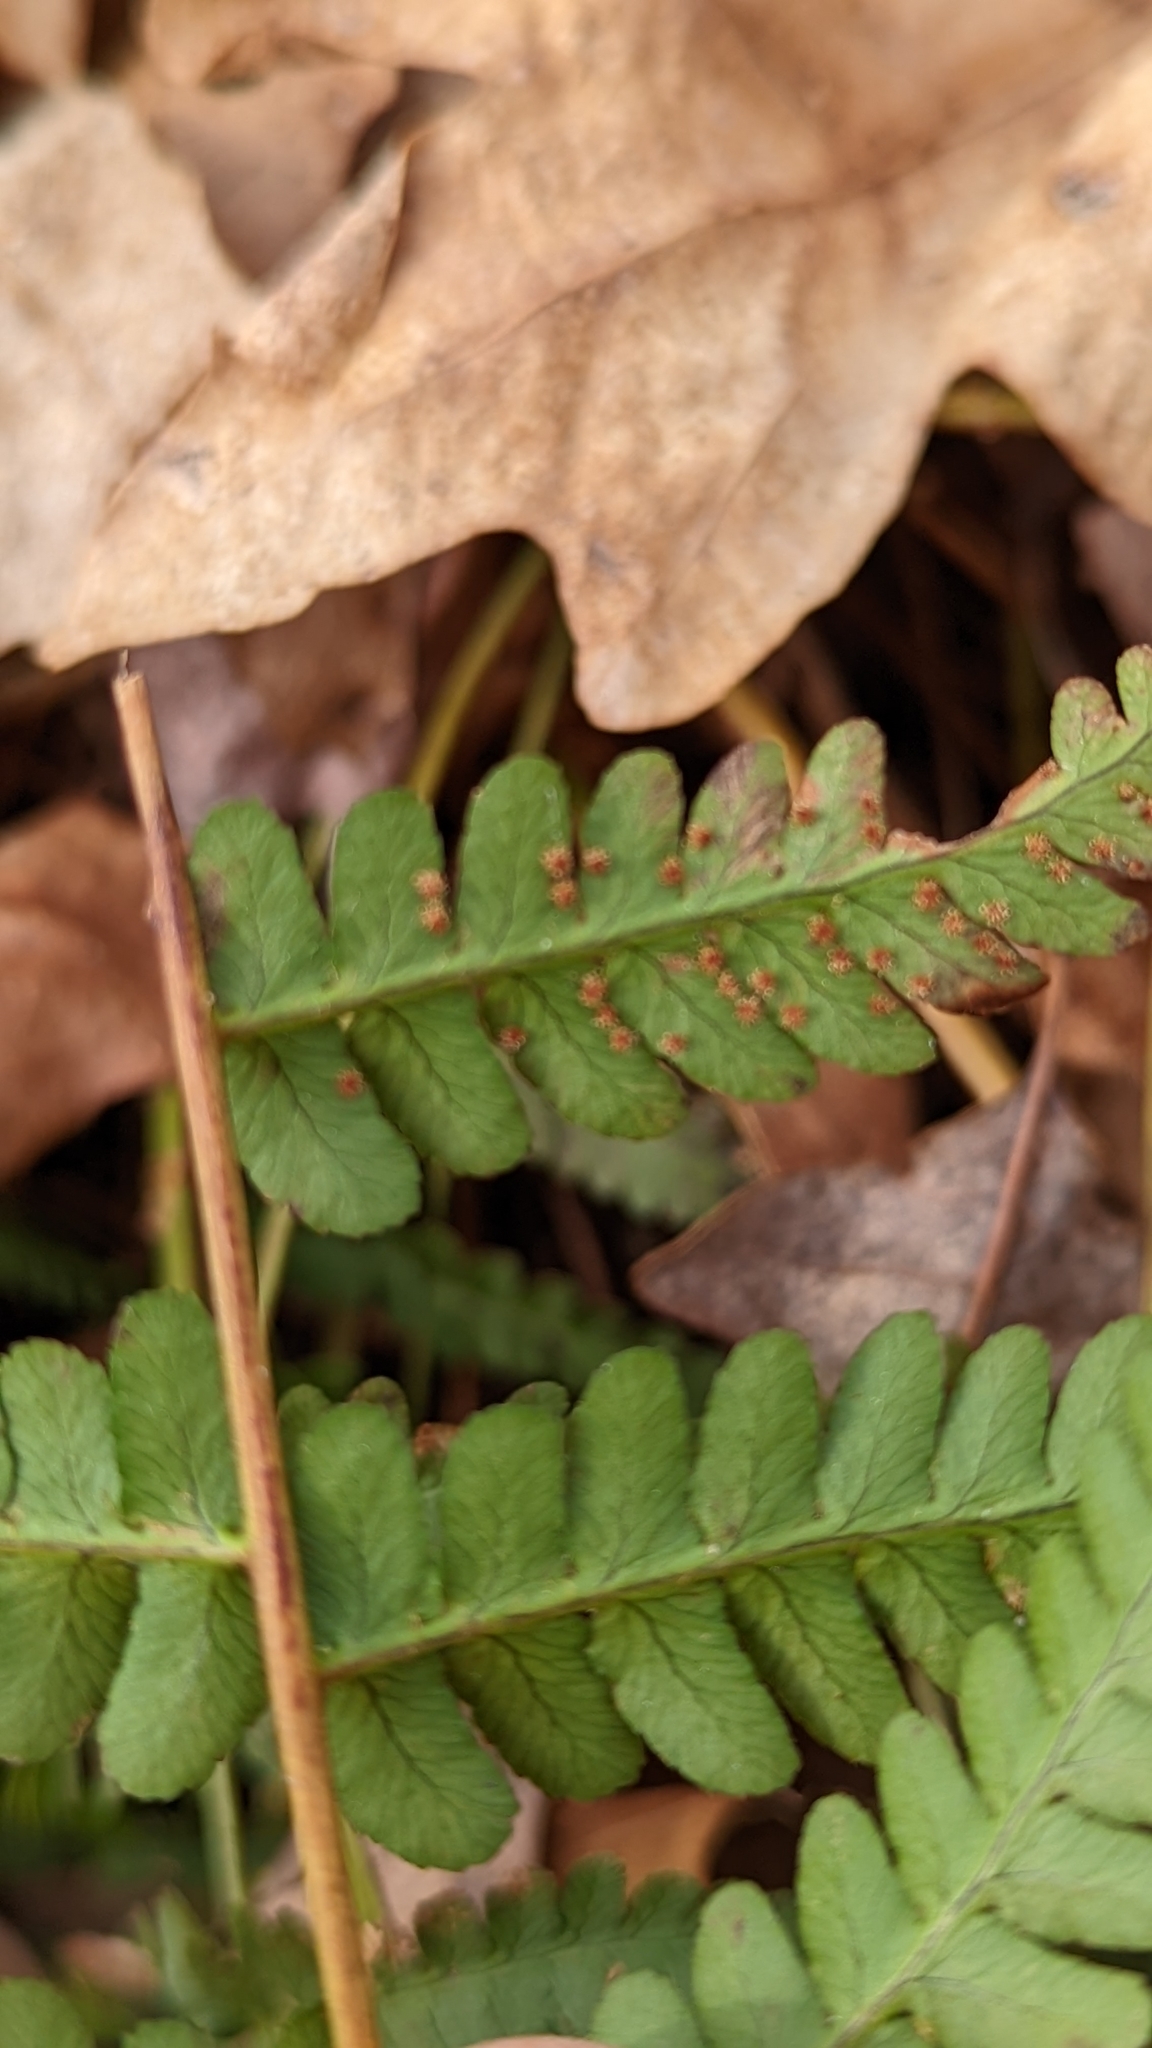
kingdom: Plantae
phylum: Tracheophyta
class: Polypodiopsida
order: Polypodiales
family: Dryopteridaceae
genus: Dryopteris
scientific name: Dryopteris marginalis
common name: Marginal wood fern
